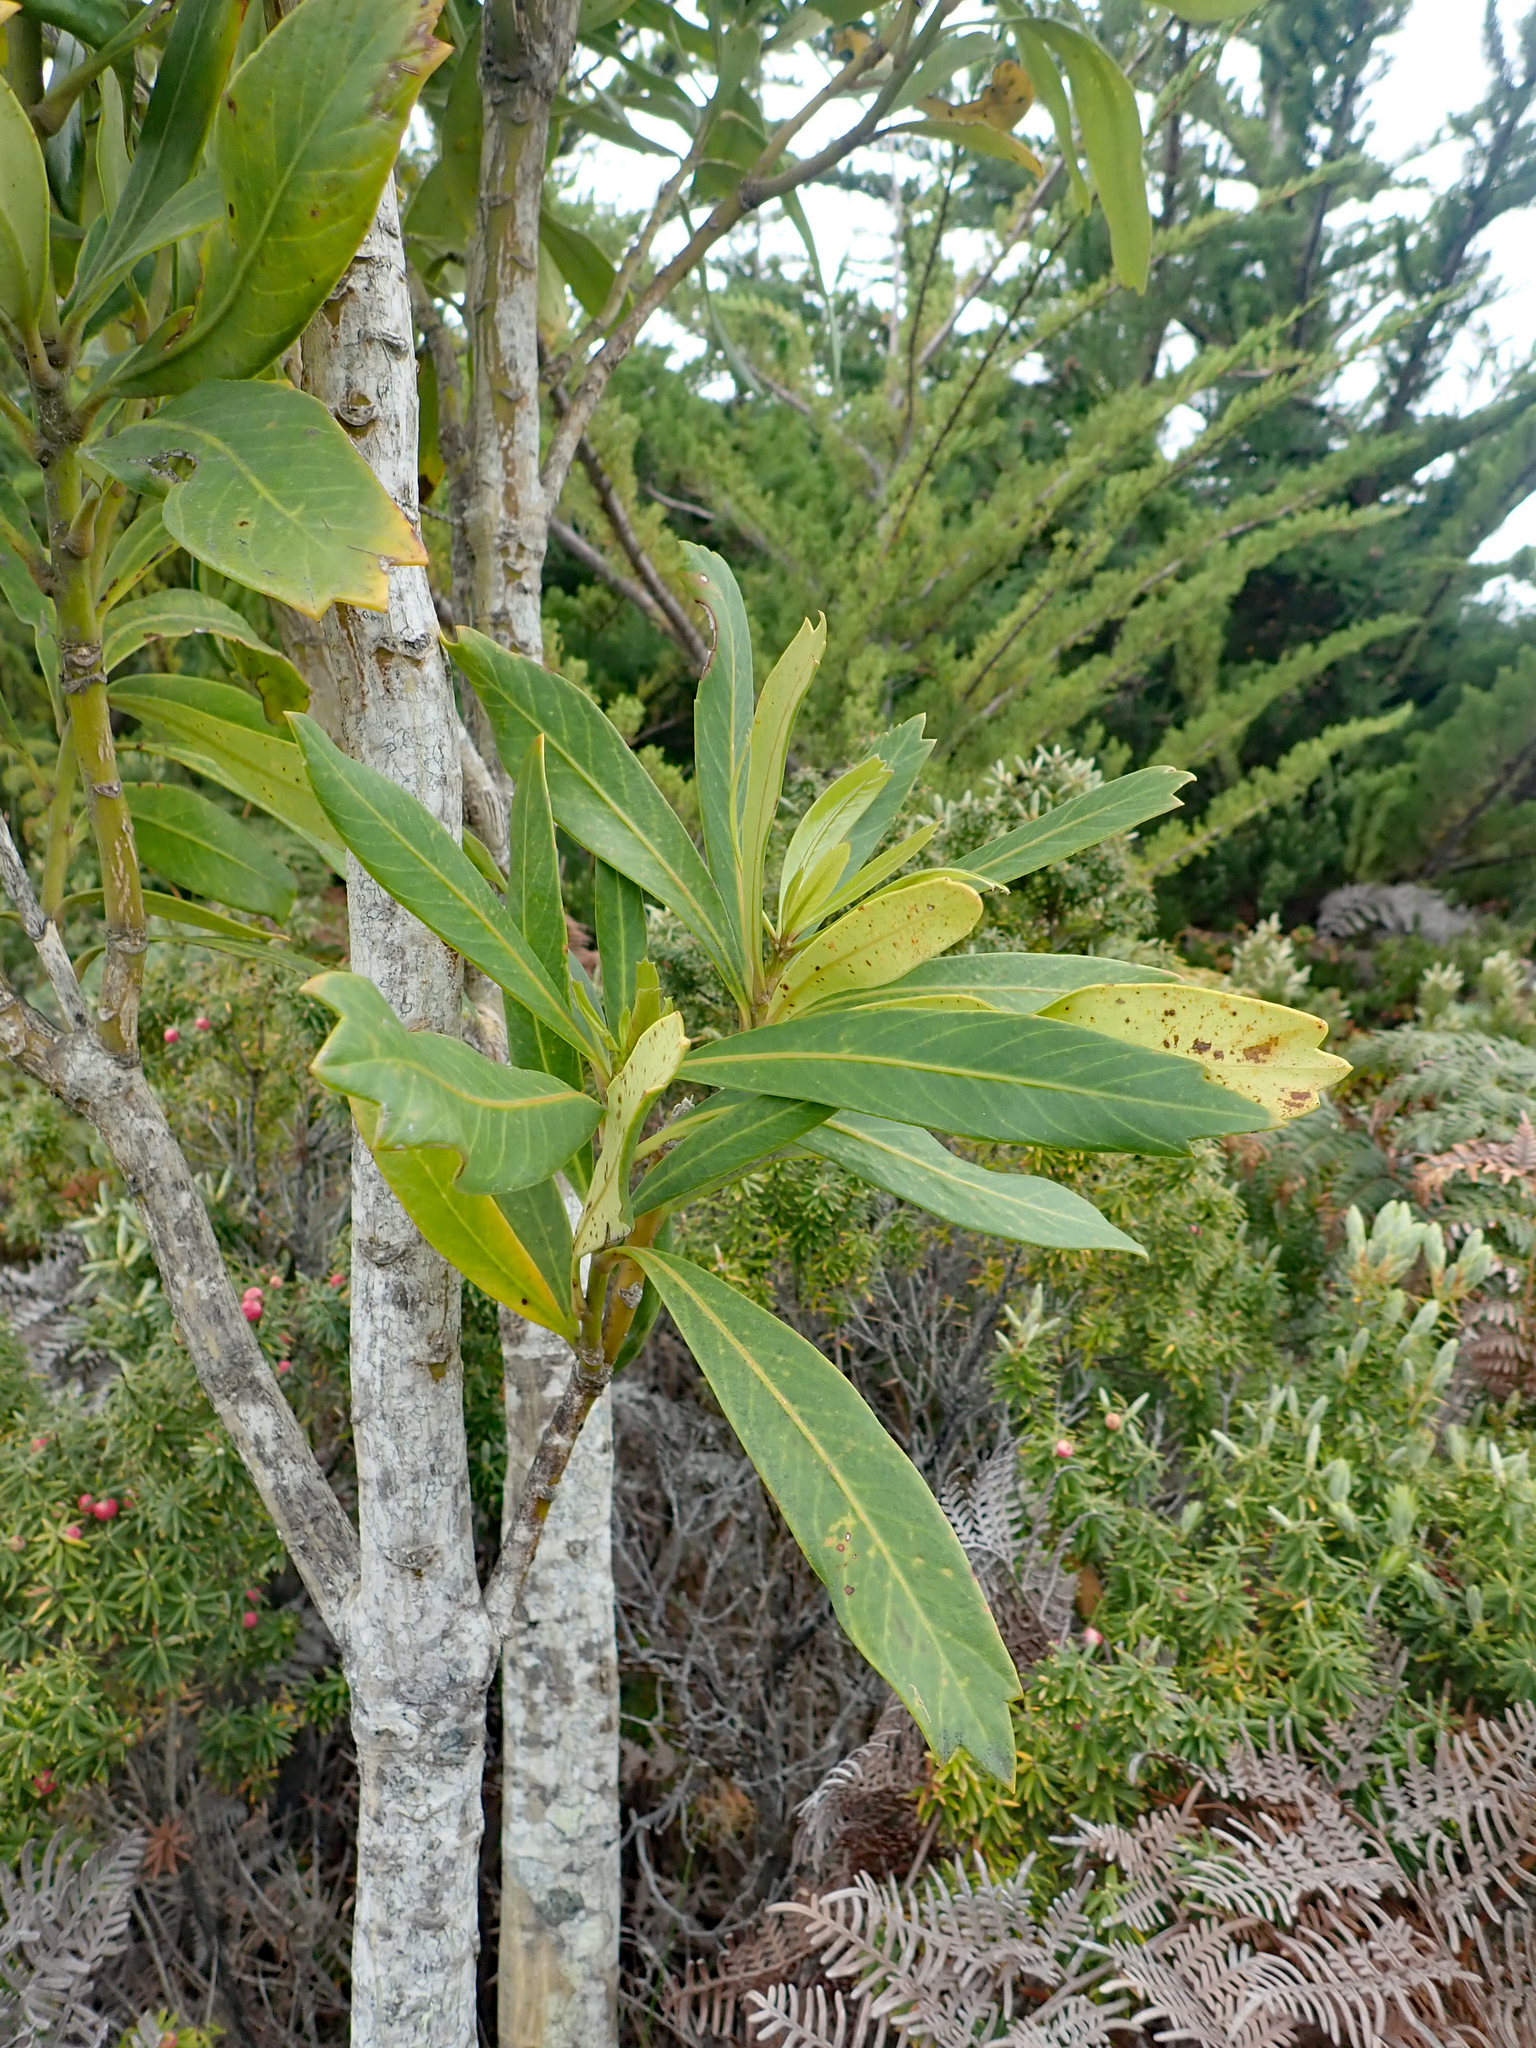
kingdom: Plantae
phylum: Tracheophyta
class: Magnoliopsida
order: Apiales
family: Araliaceae
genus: Pseudopanax
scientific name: Pseudopanax chathamicus
